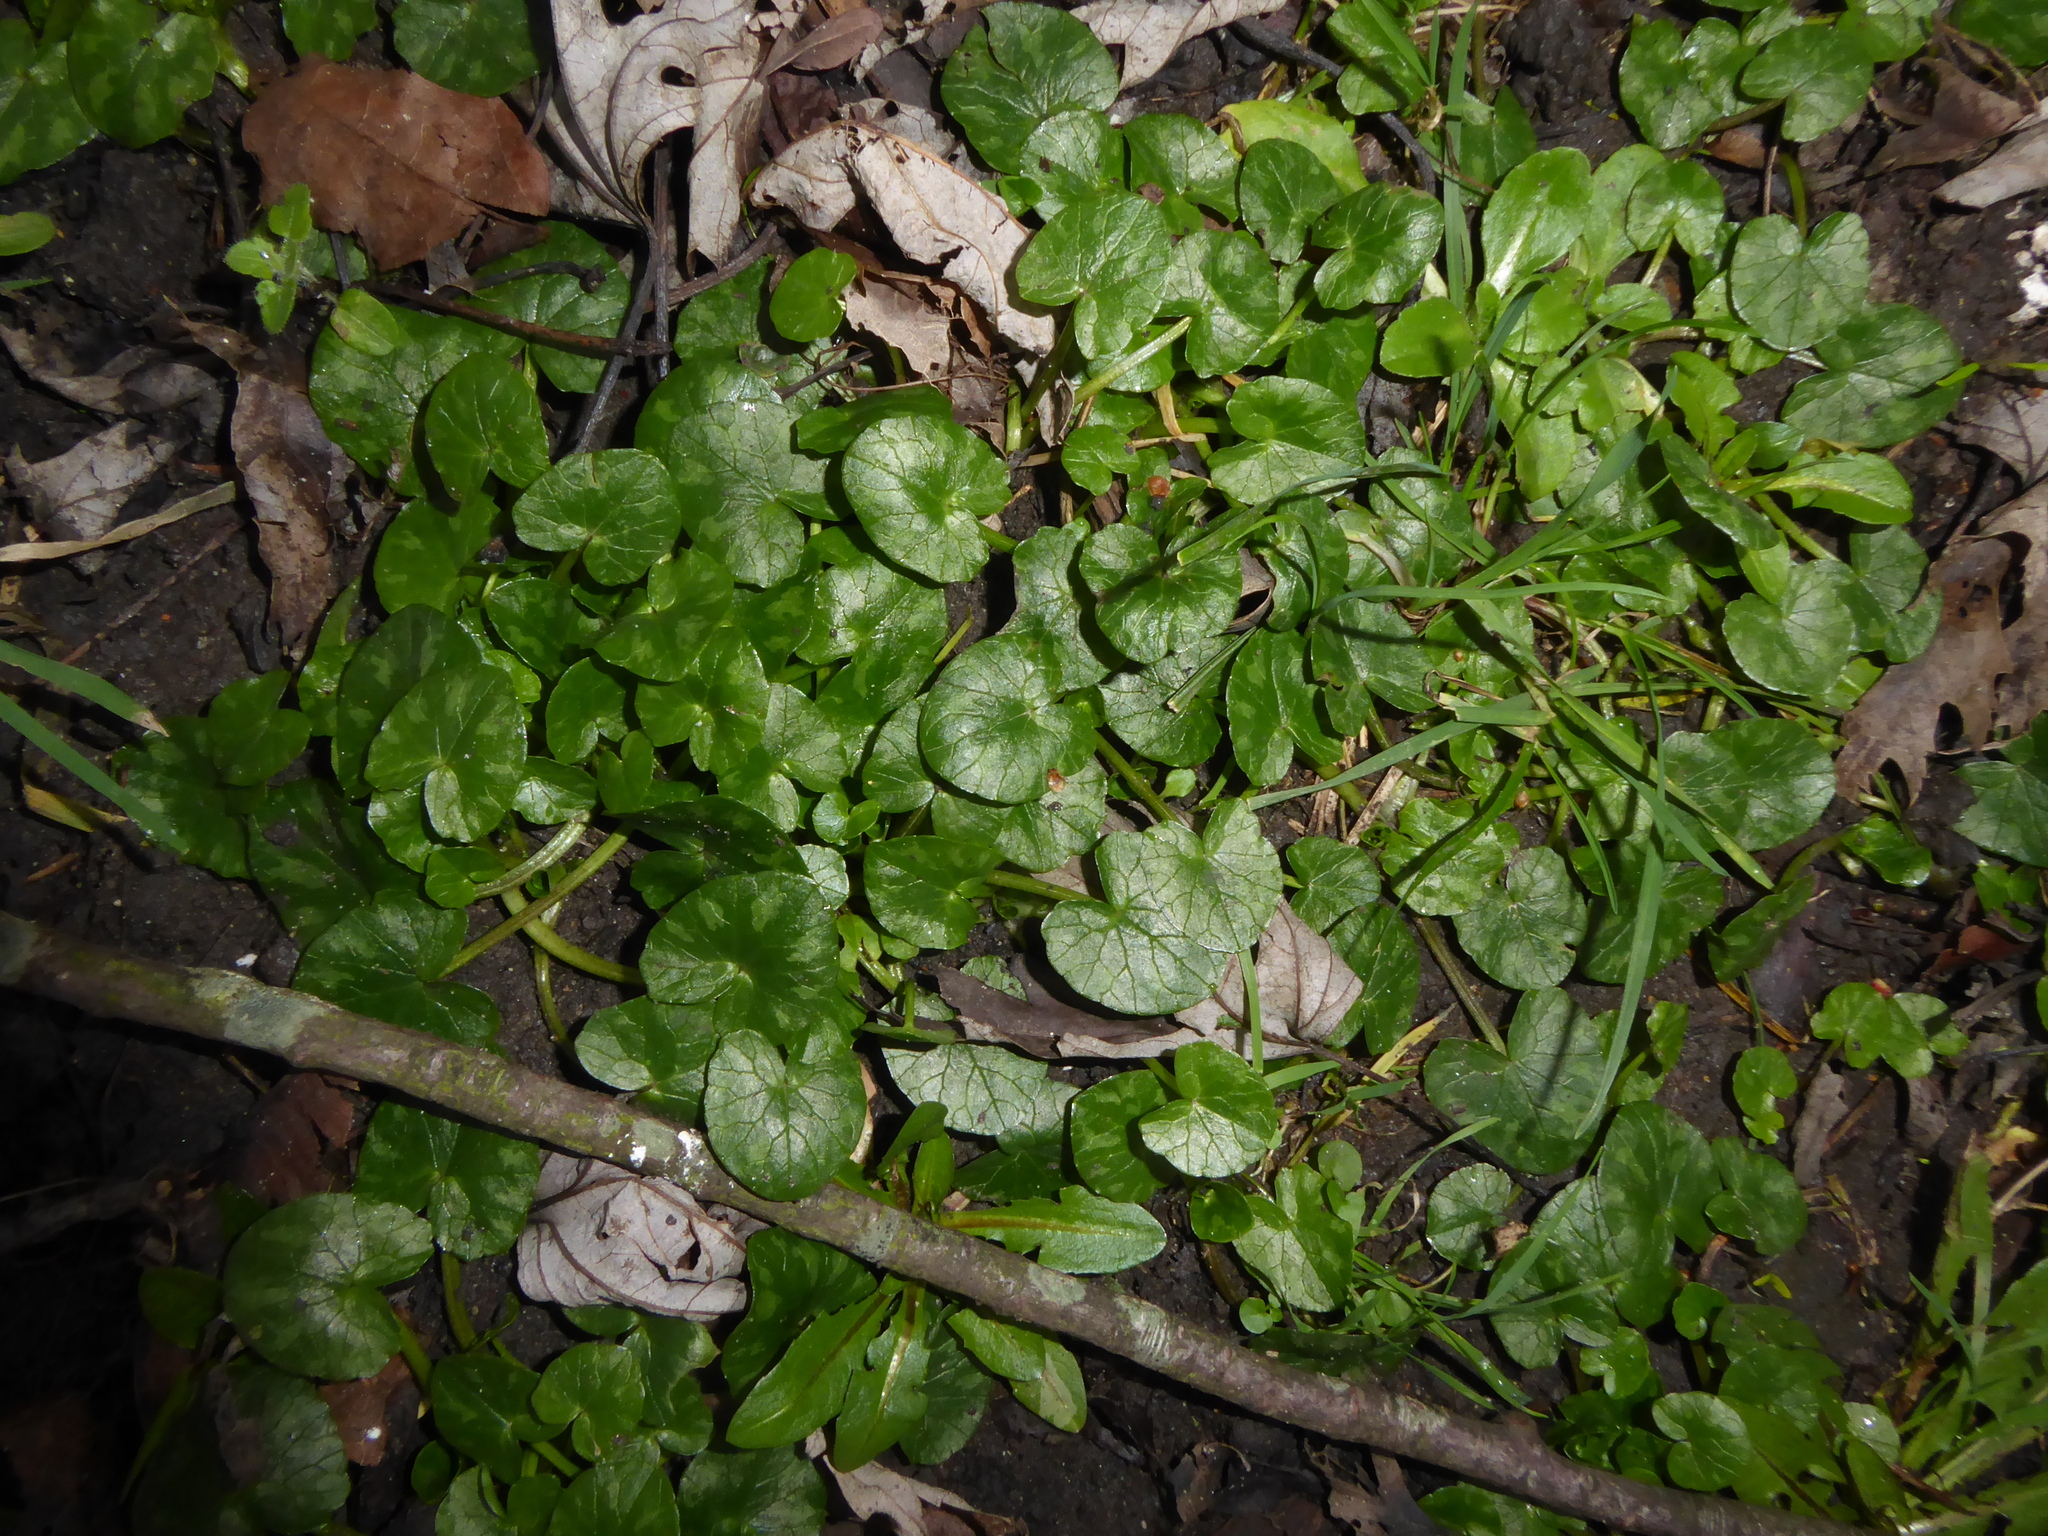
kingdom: Plantae
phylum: Tracheophyta
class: Magnoliopsida
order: Ranunculales
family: Ranunculaceae
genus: Ficaria
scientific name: Ficaria verna
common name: Lesser celandine
